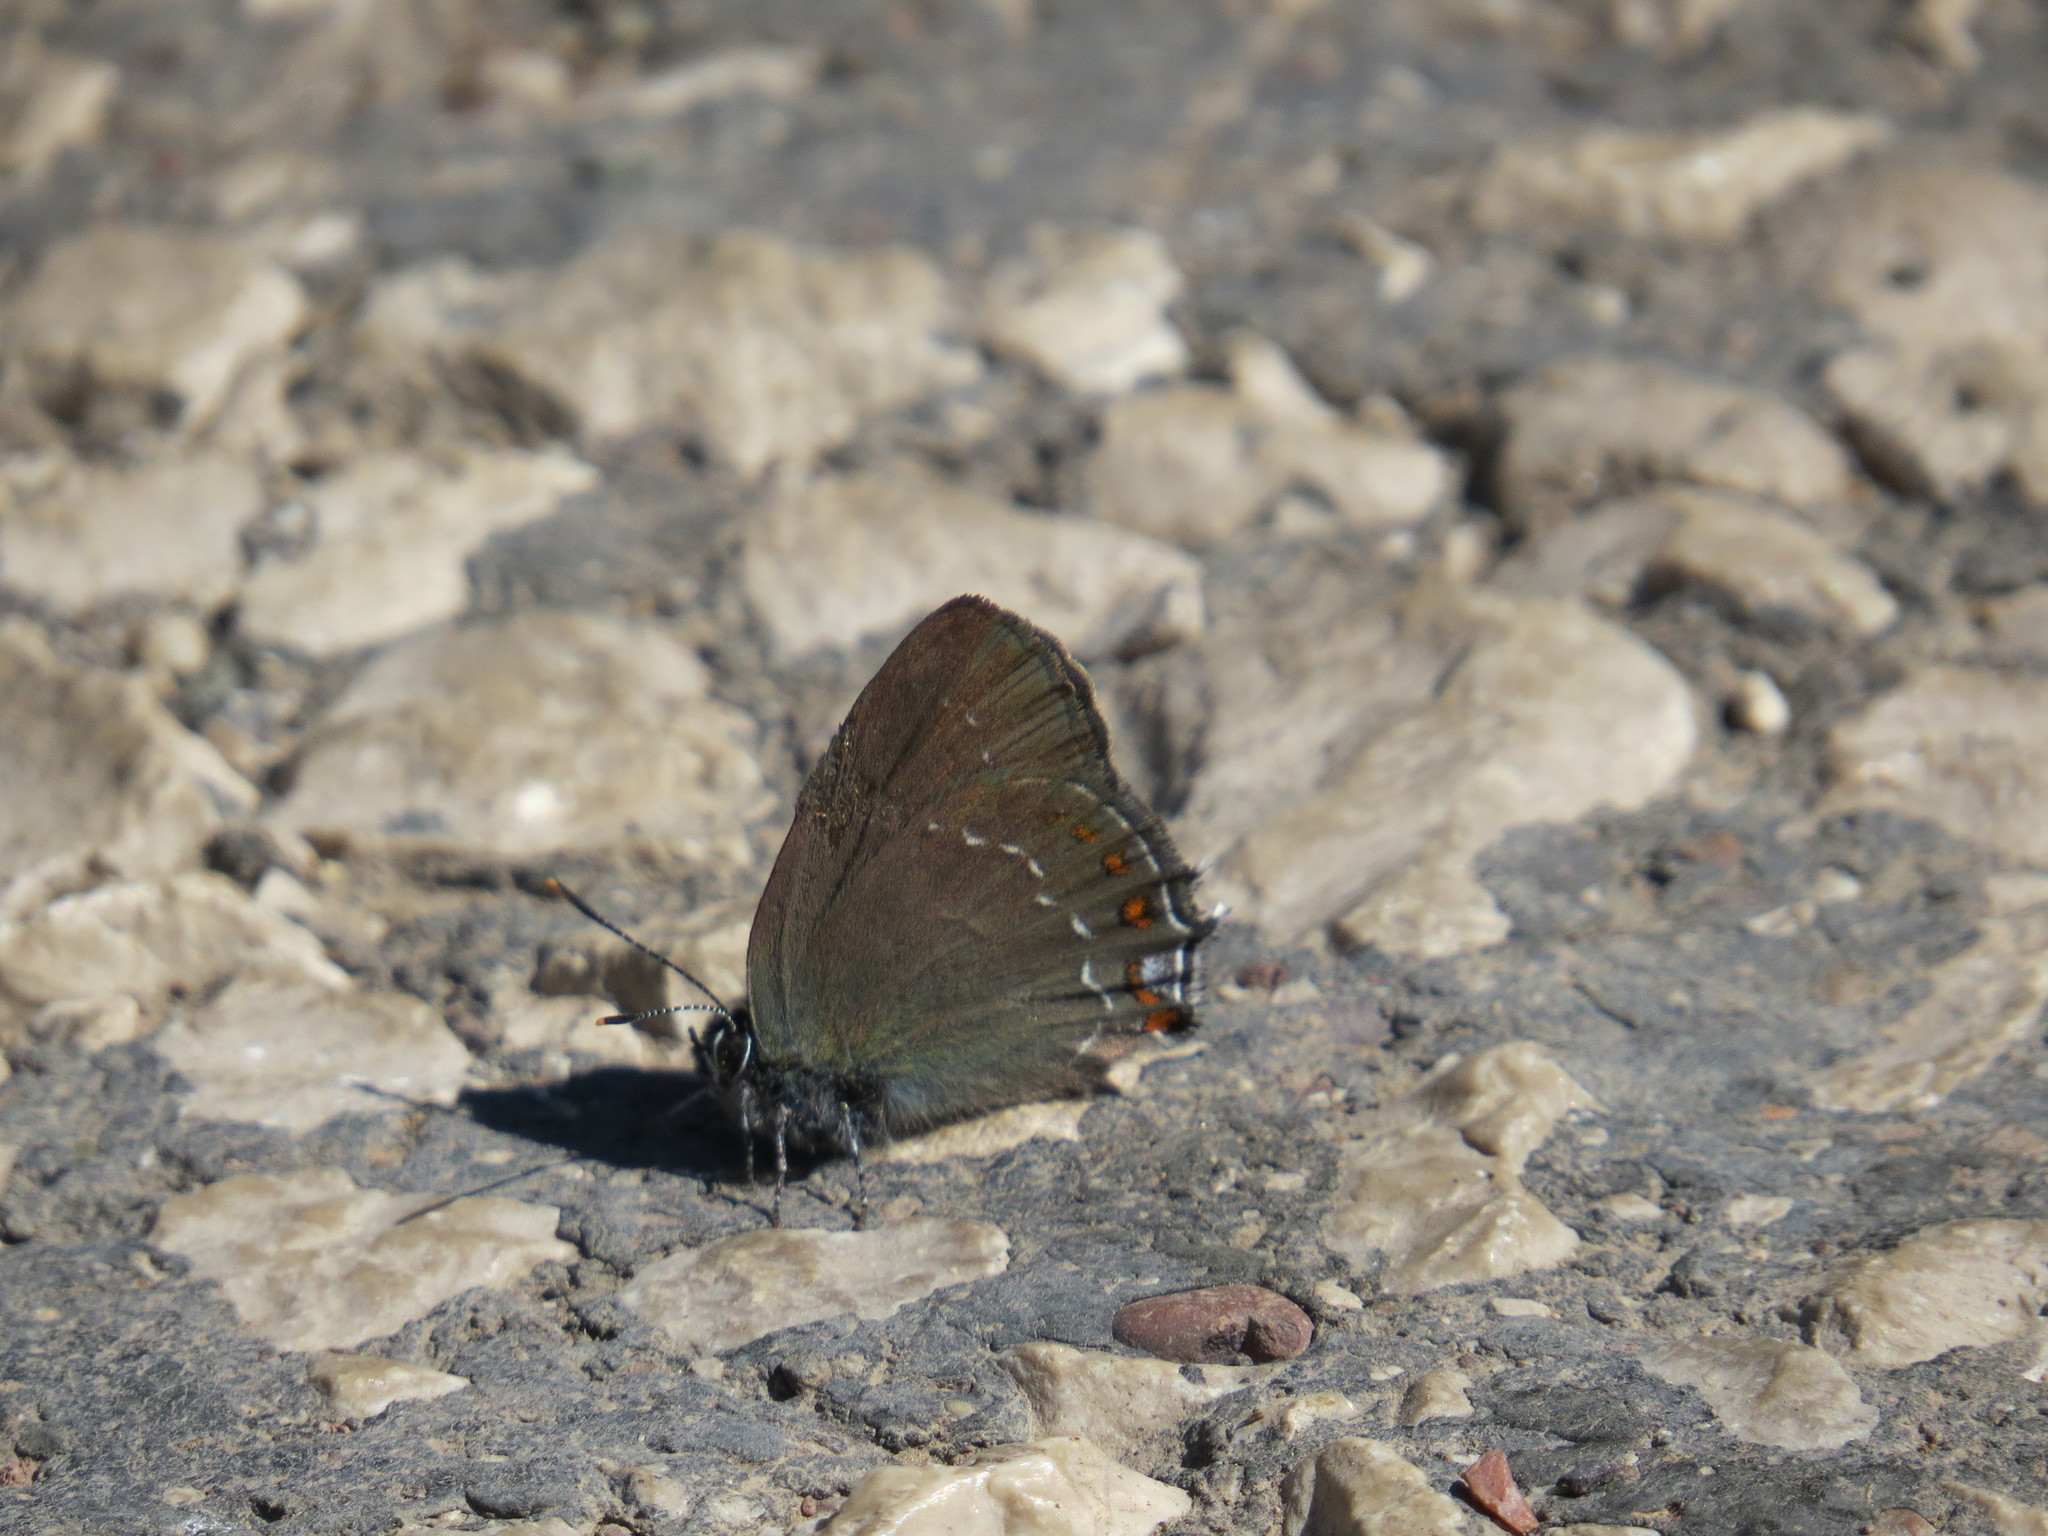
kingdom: Animalia
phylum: Arthropoda
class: Insecta
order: Lepidoptera
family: Lycaenidae
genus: Nordmannia
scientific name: Nordmannia ilicis
